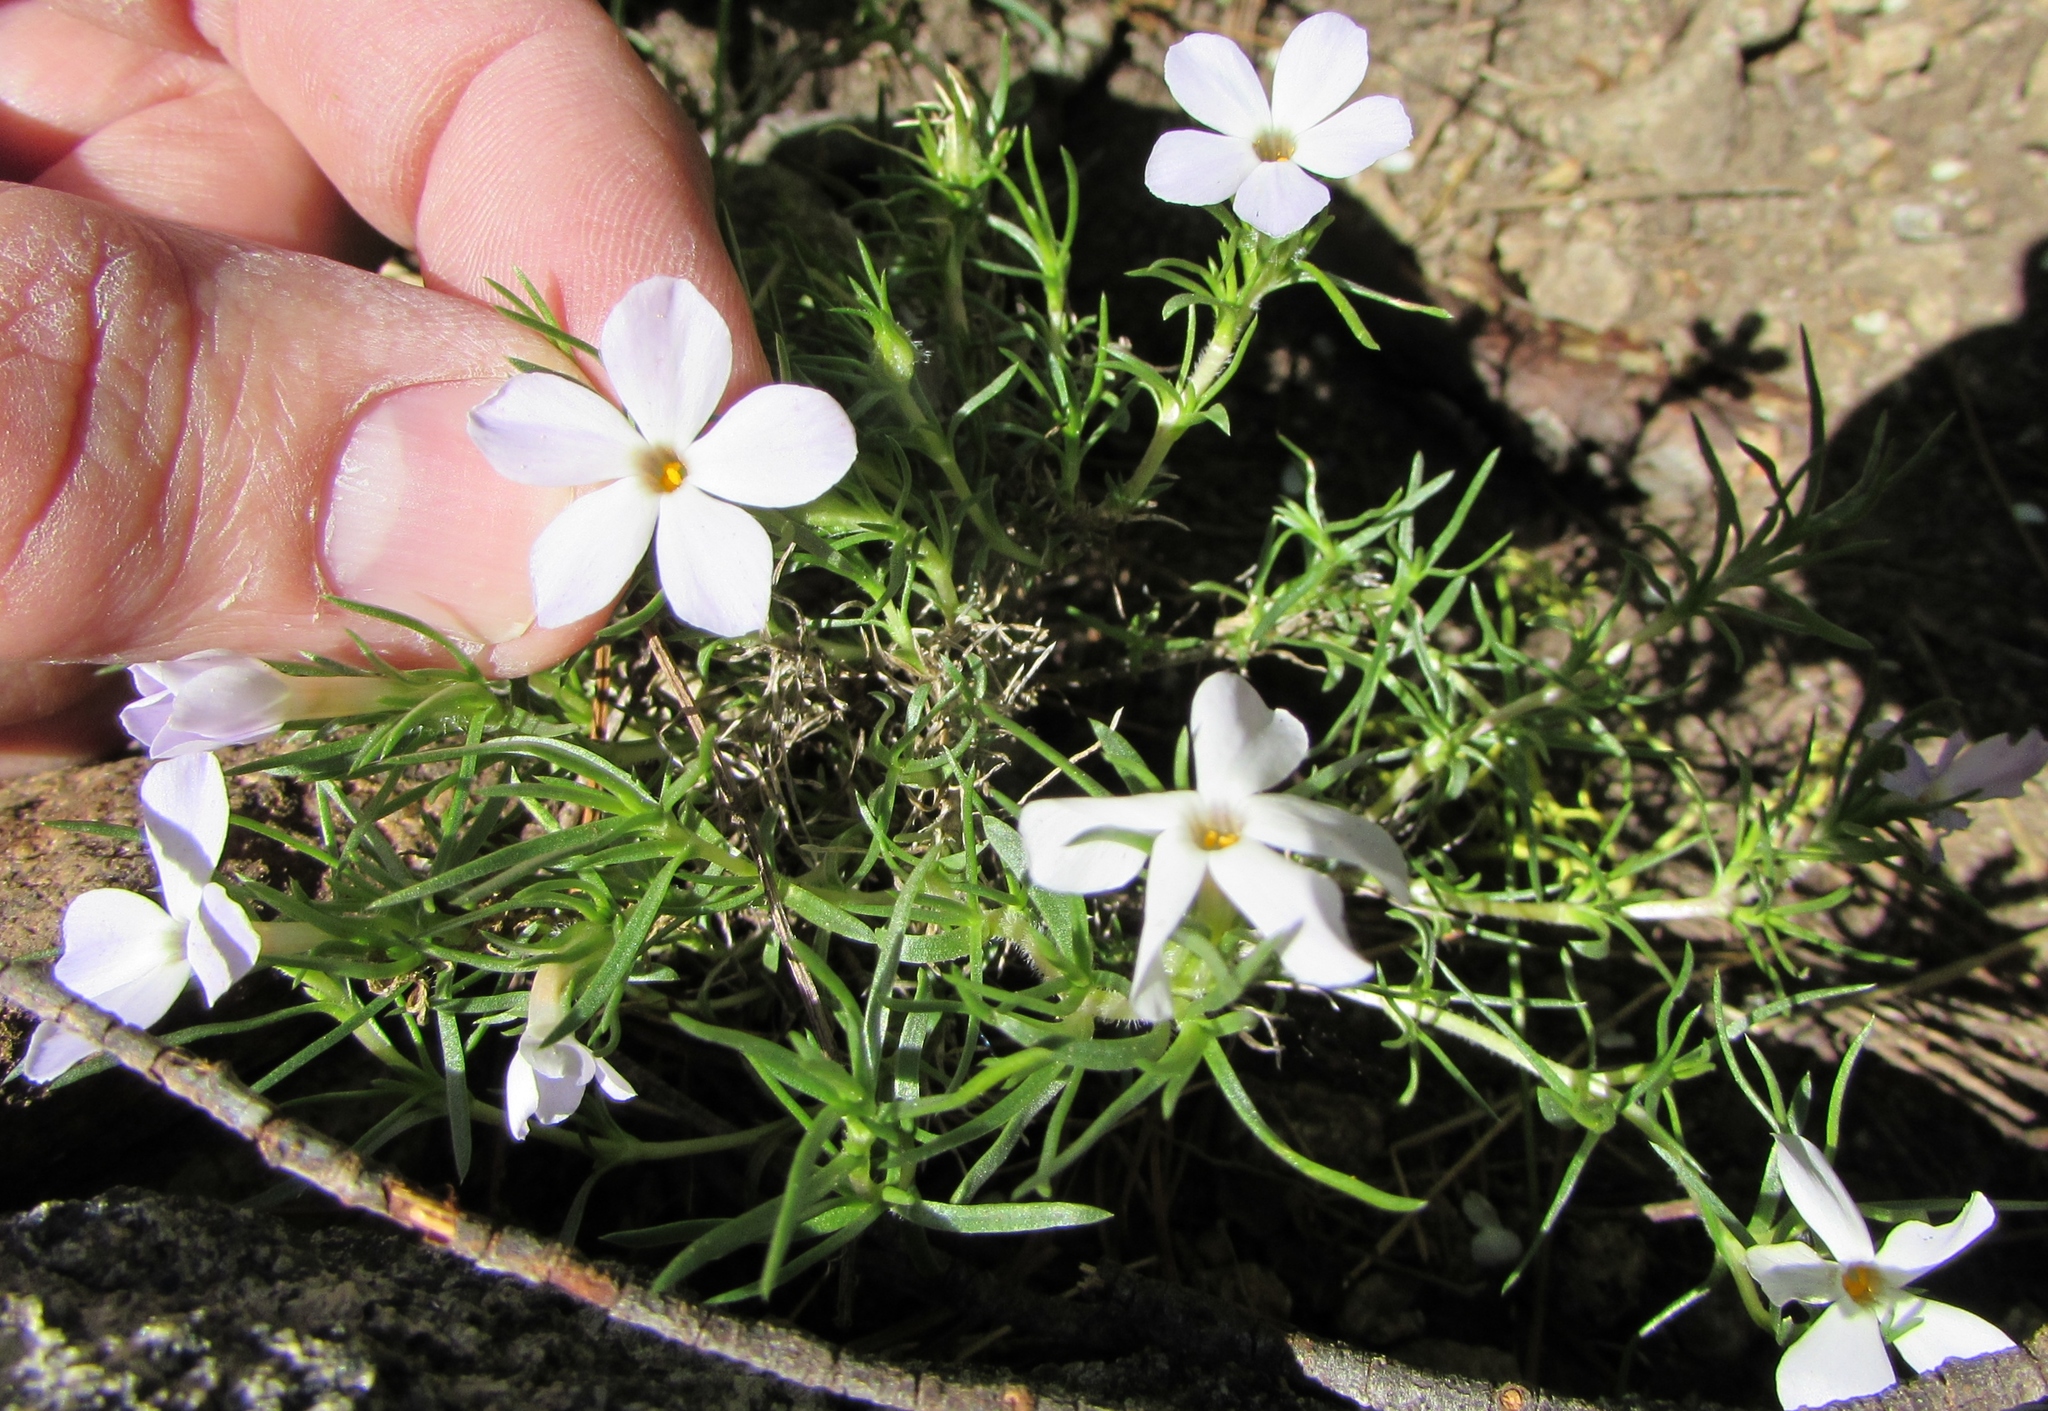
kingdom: Plantae
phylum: Tracheophyta
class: Magnoliopsida
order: Ericales
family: Polemoniaceae
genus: Phlox
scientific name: Phlox diffusa
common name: Mat phlox
